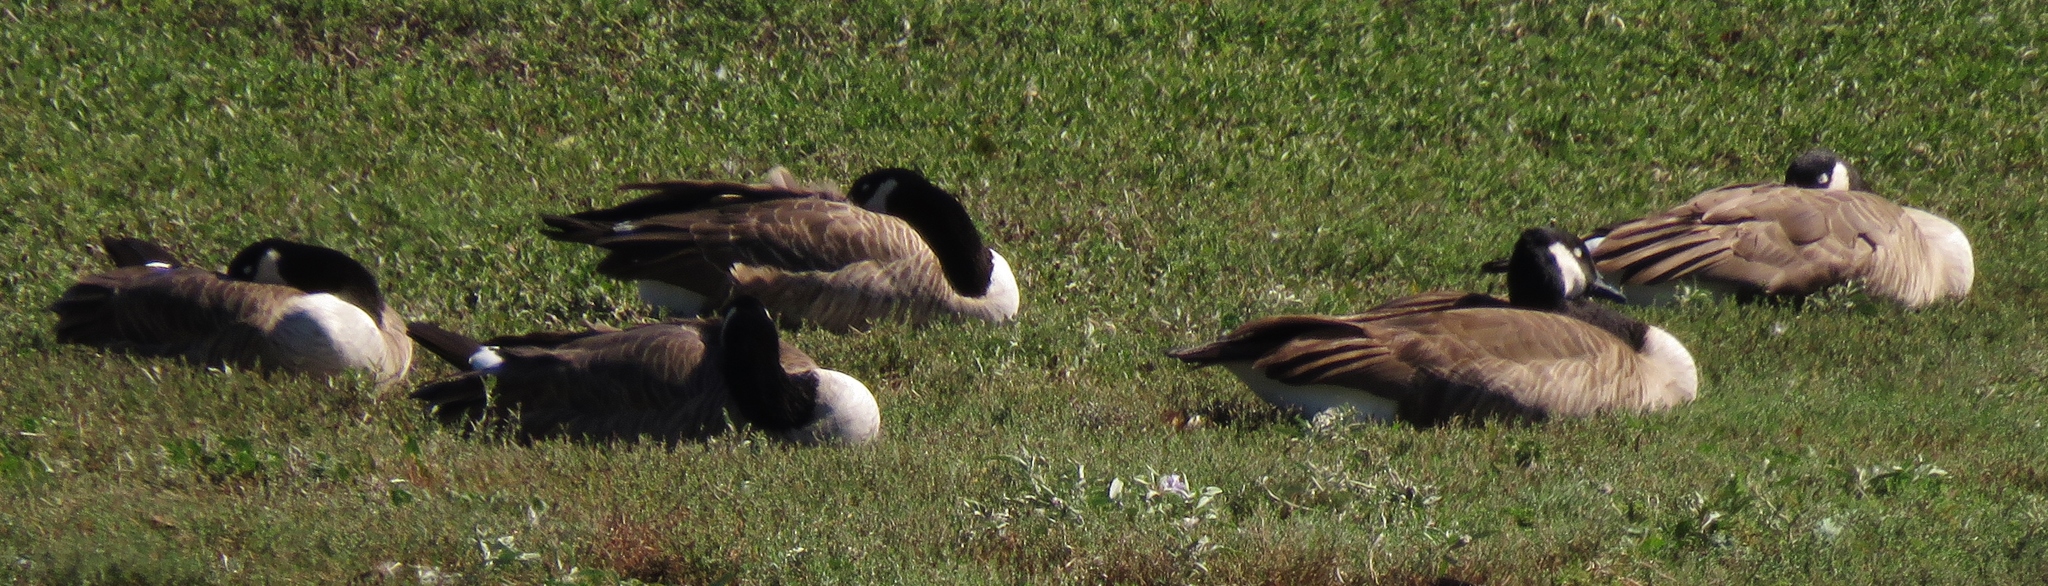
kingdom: Animalia
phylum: Chordata
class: Aves
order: Anseriformes
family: Anatidae
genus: Branta
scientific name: Branta canadensis
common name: Canada goose
